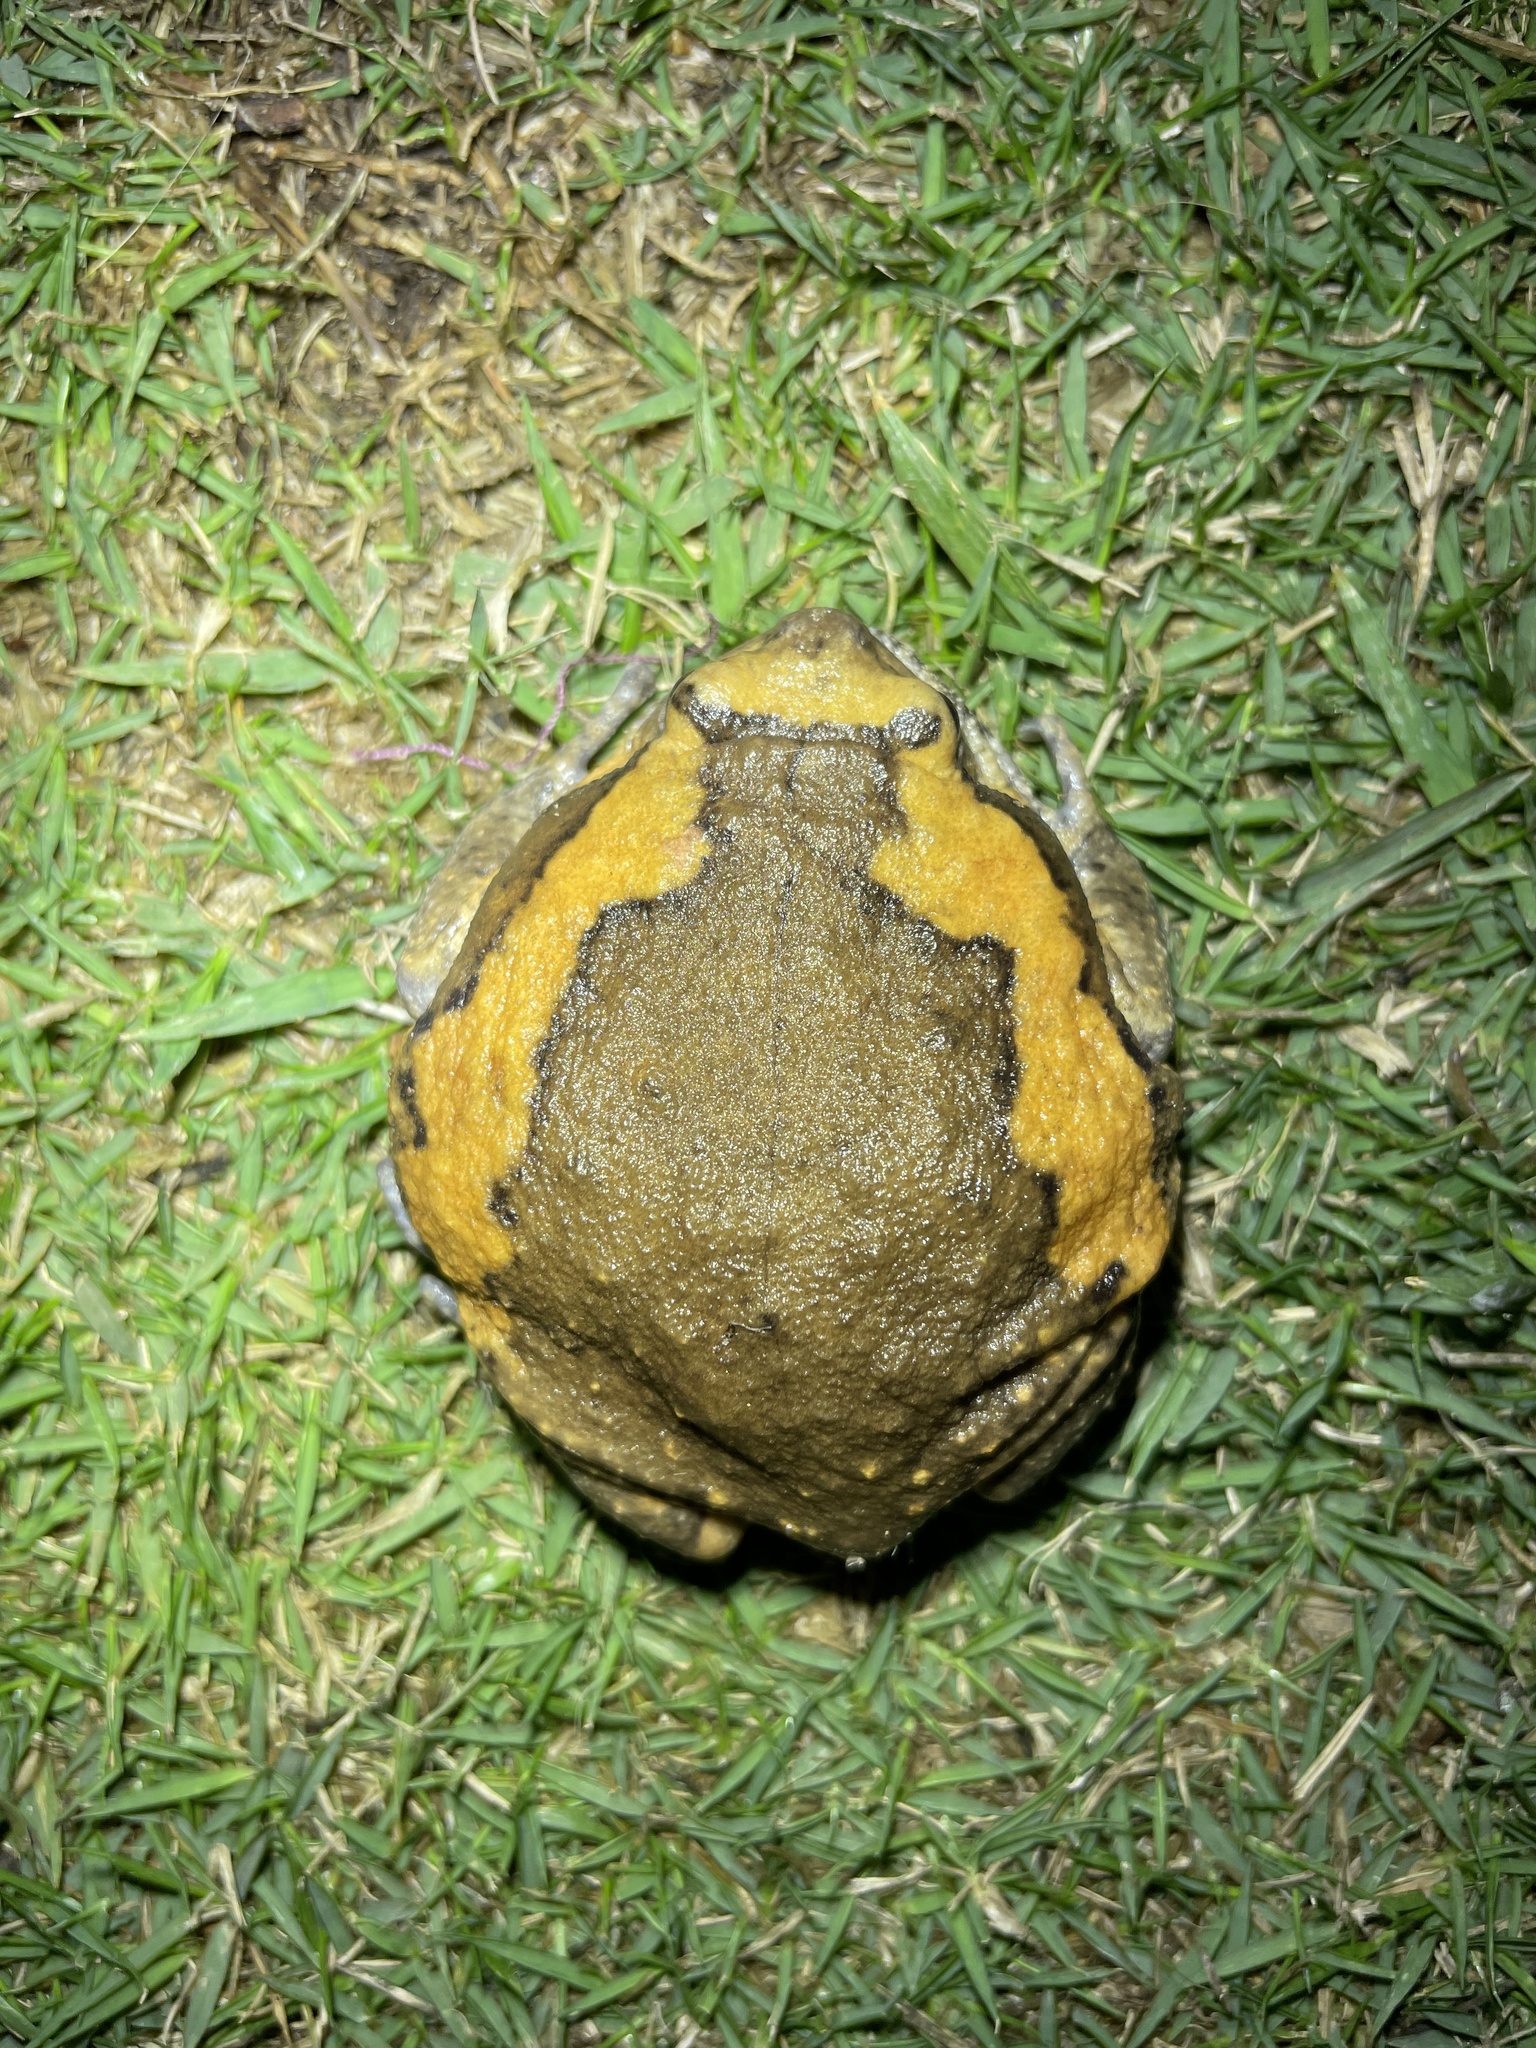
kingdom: Animalia
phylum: Chordata
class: Amphibia
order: Anura
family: Microhylidae
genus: Kaloula
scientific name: Kaloula pulchra
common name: Common,banded bullfrog
